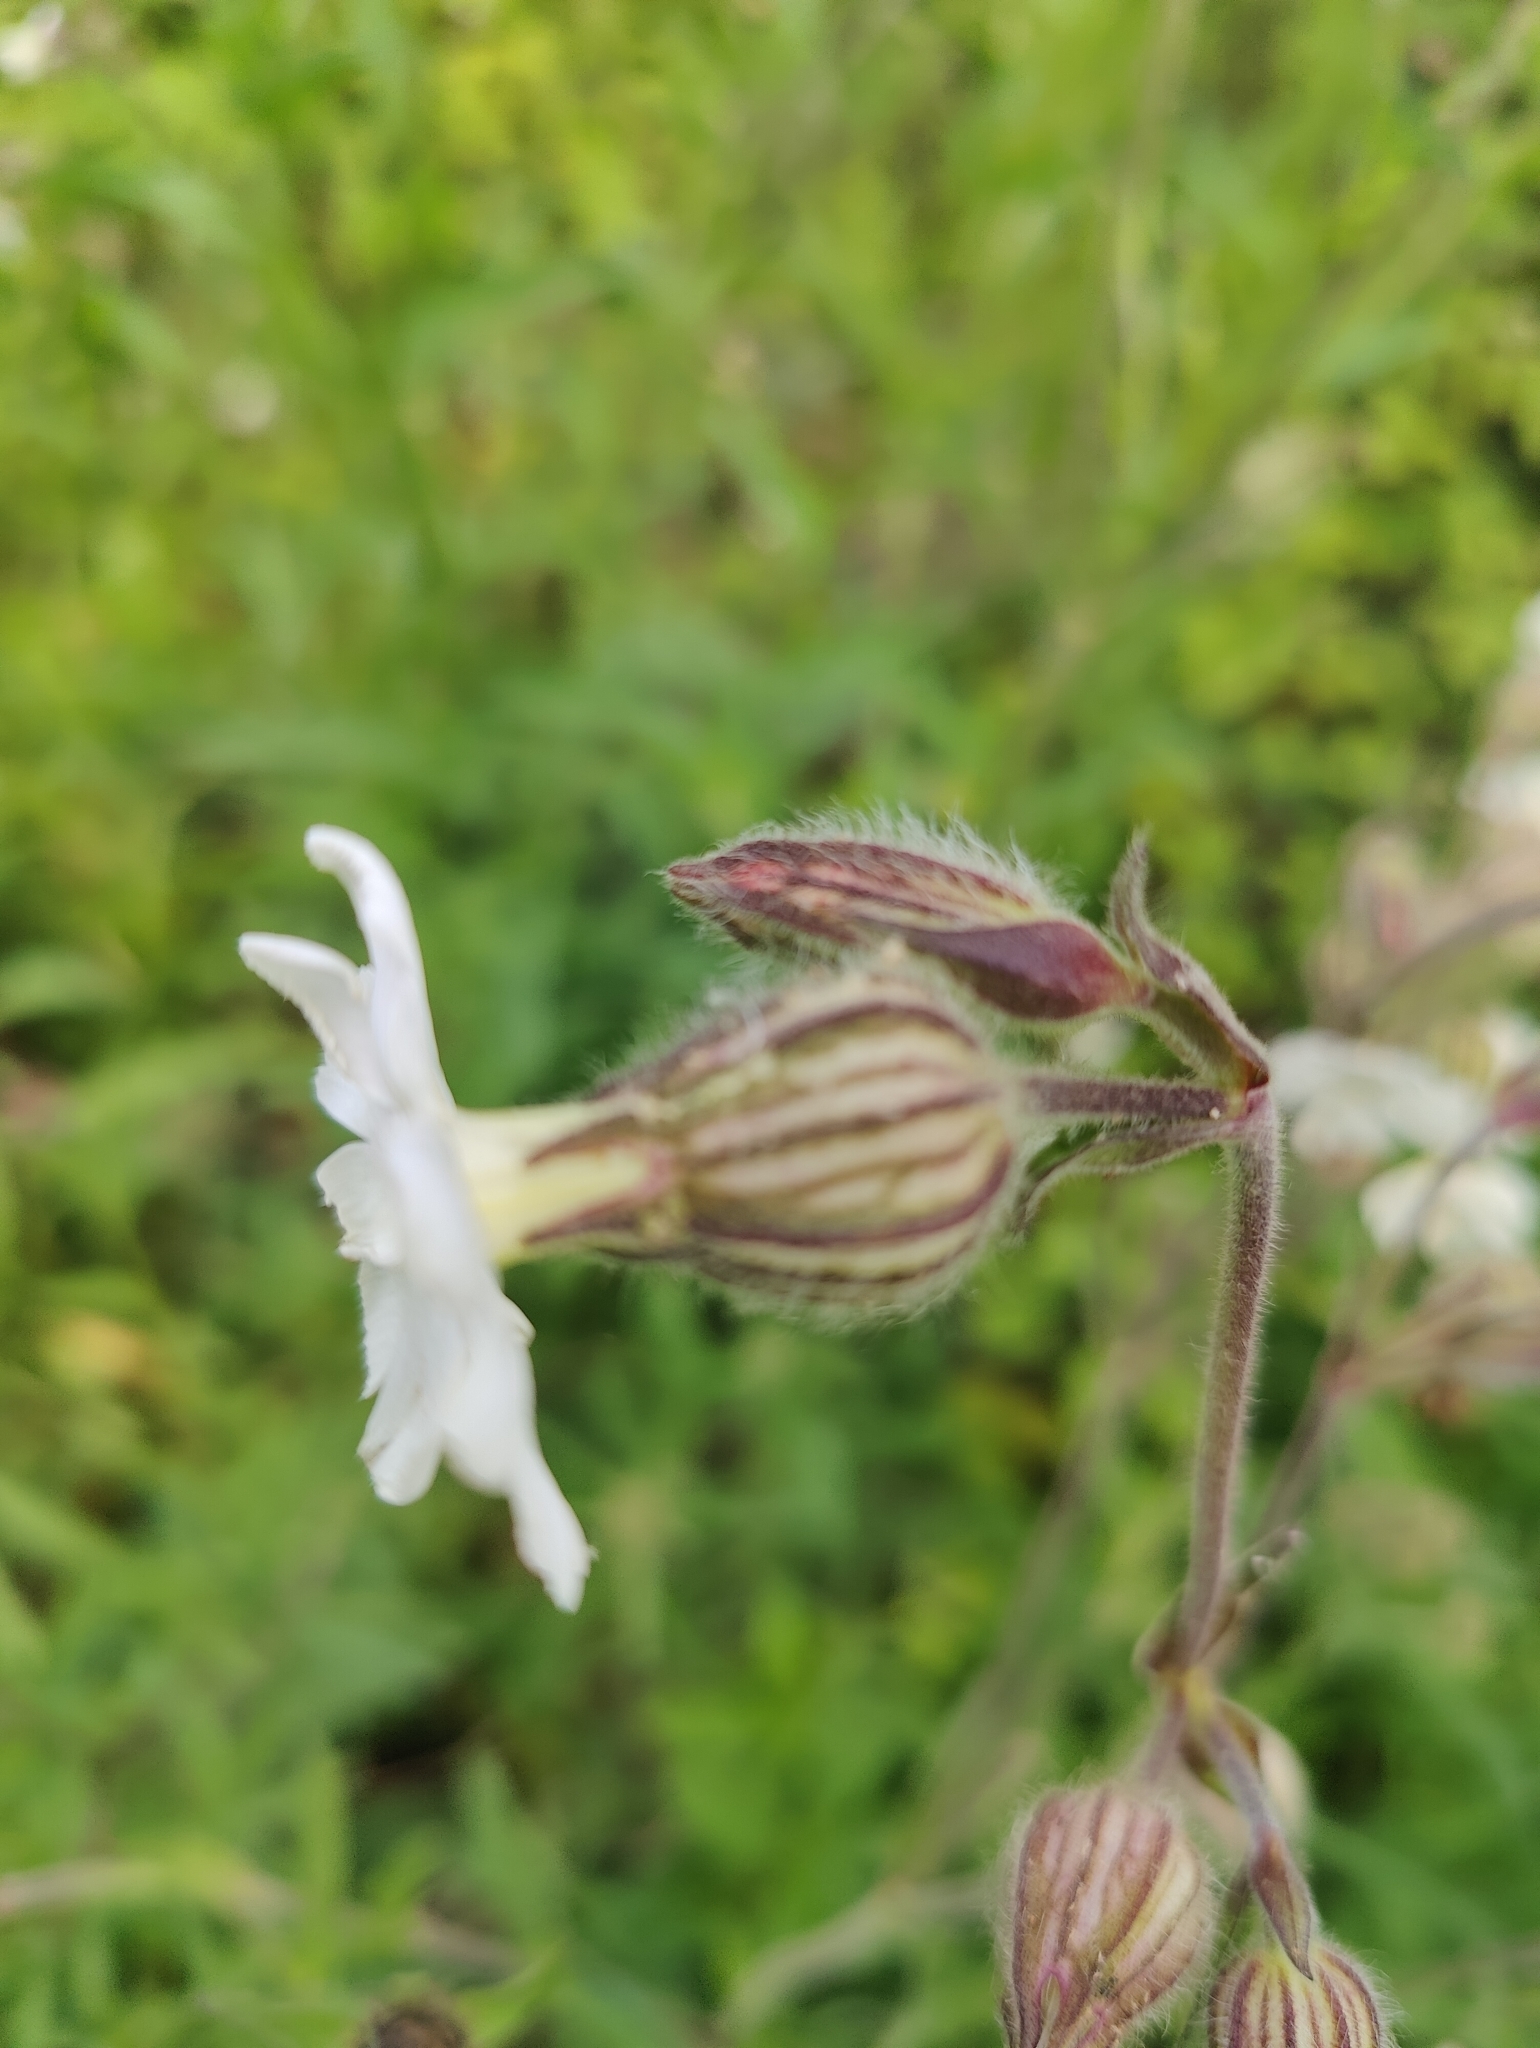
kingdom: Plantae
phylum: Tracheophyta
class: Magnoliopsida
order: Caryophyllales
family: Caryophyllaceae
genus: Silene
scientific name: Silene latifolia
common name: White campion
